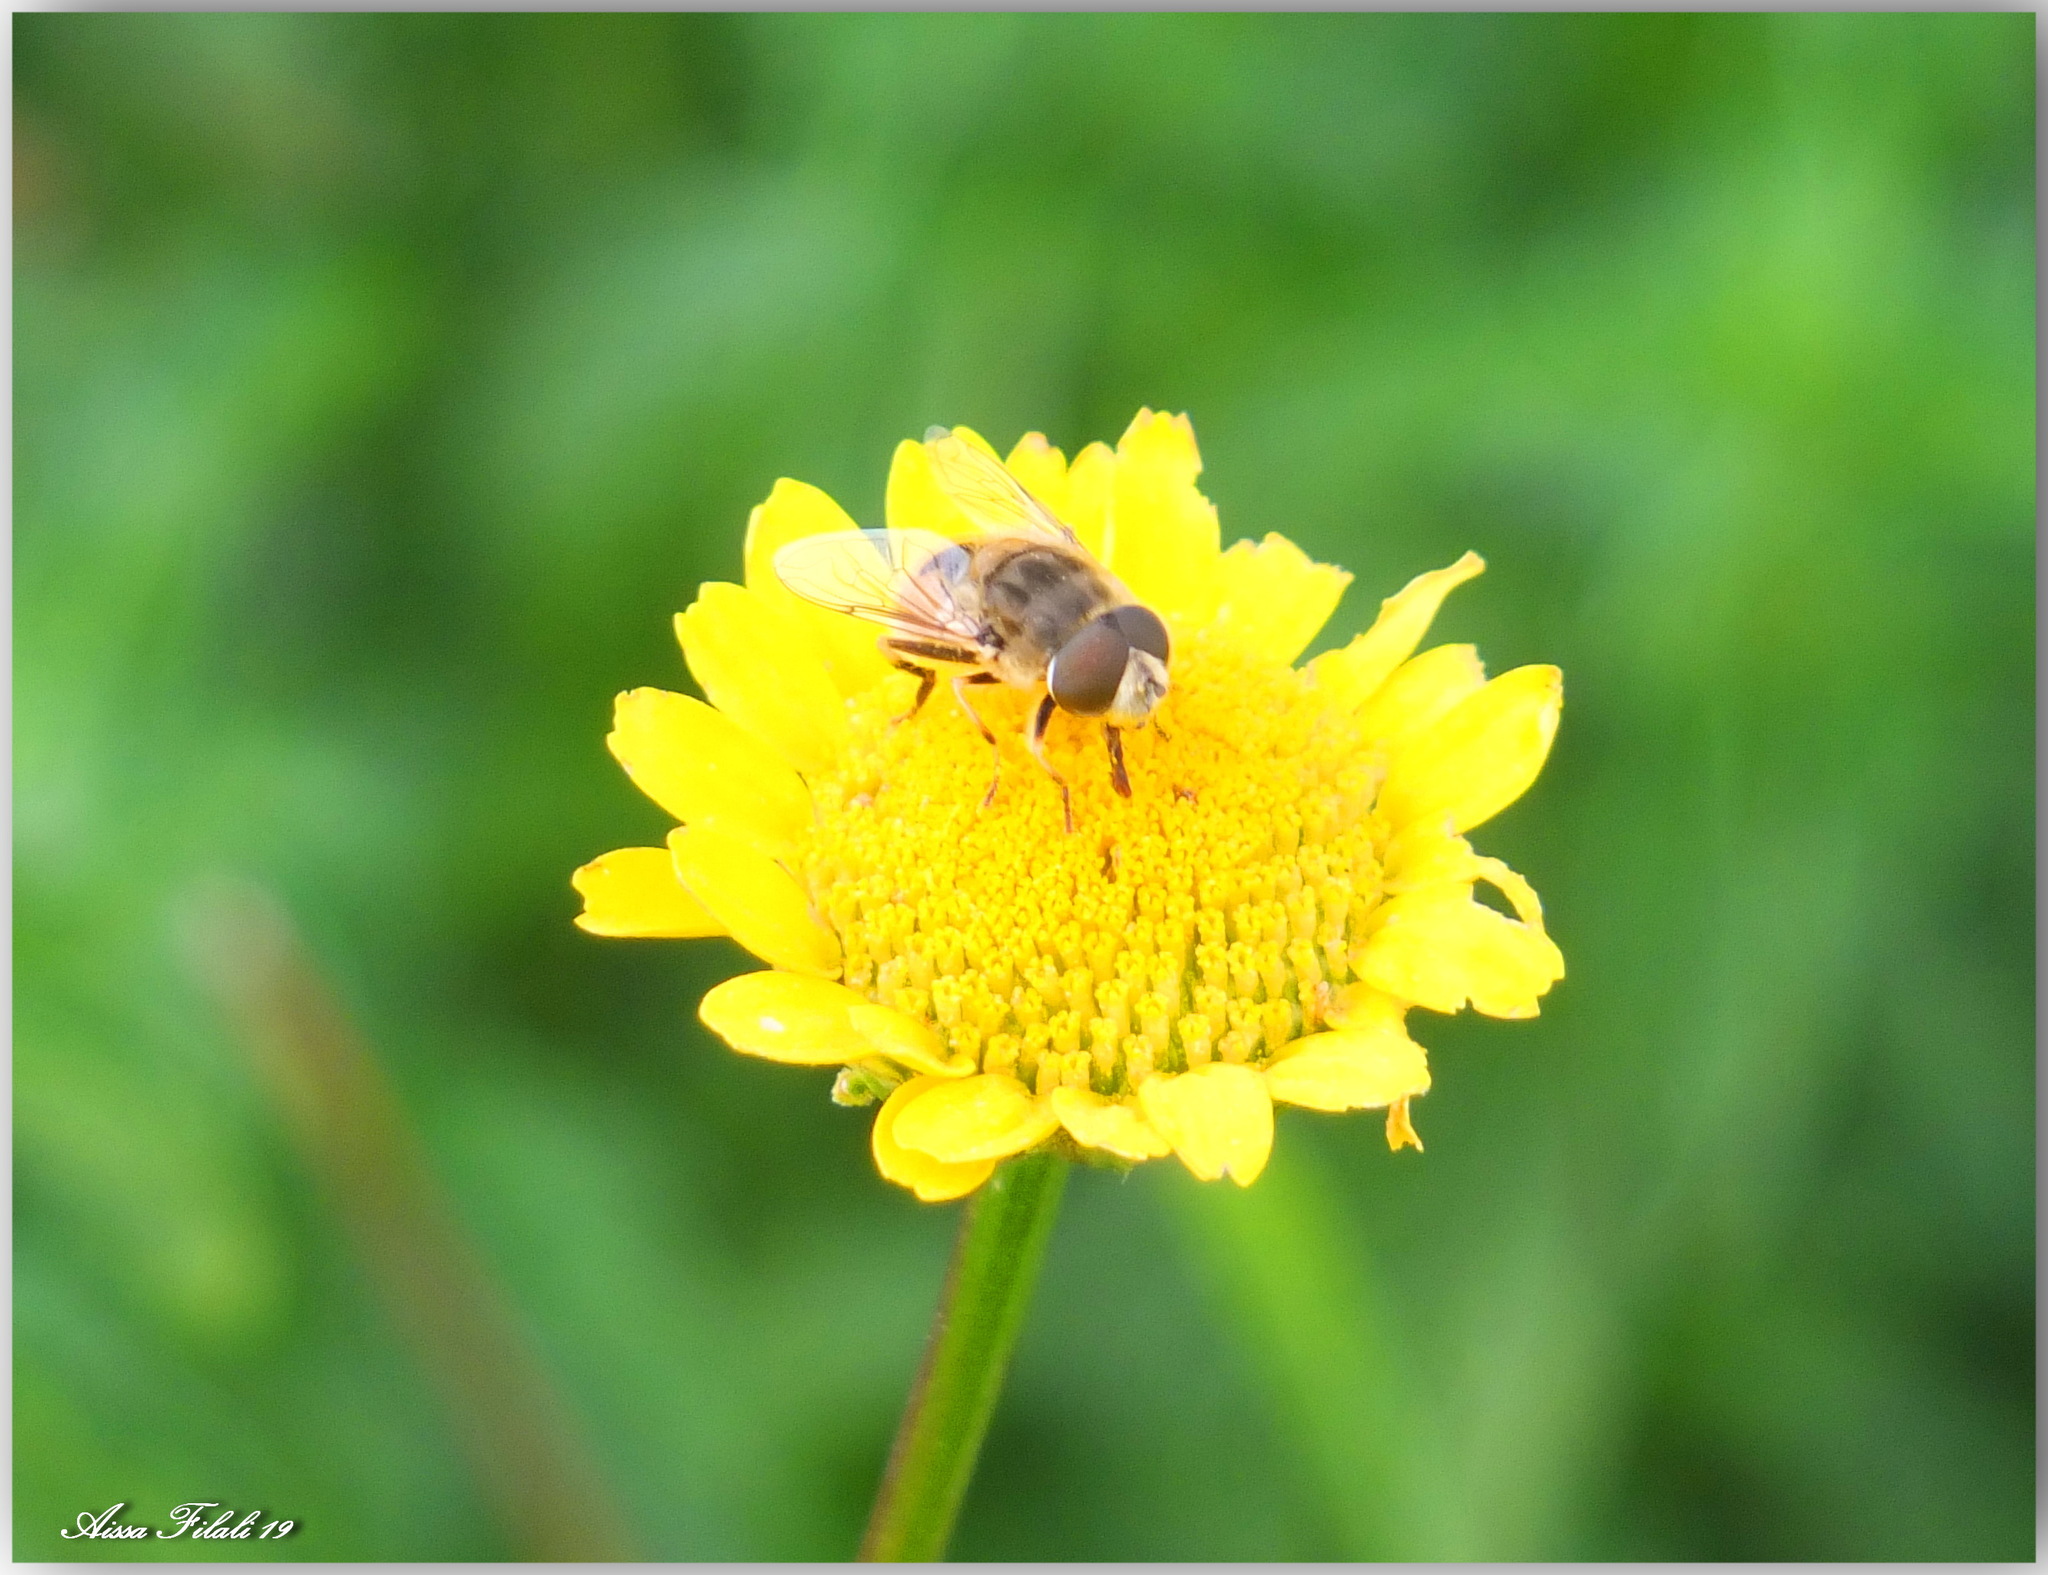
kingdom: Animalia
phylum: Arthropoda
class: Insecta
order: Diptera
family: Syrphidae
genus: Eristalis
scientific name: Eristalis arbustorum
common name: Hover fly
